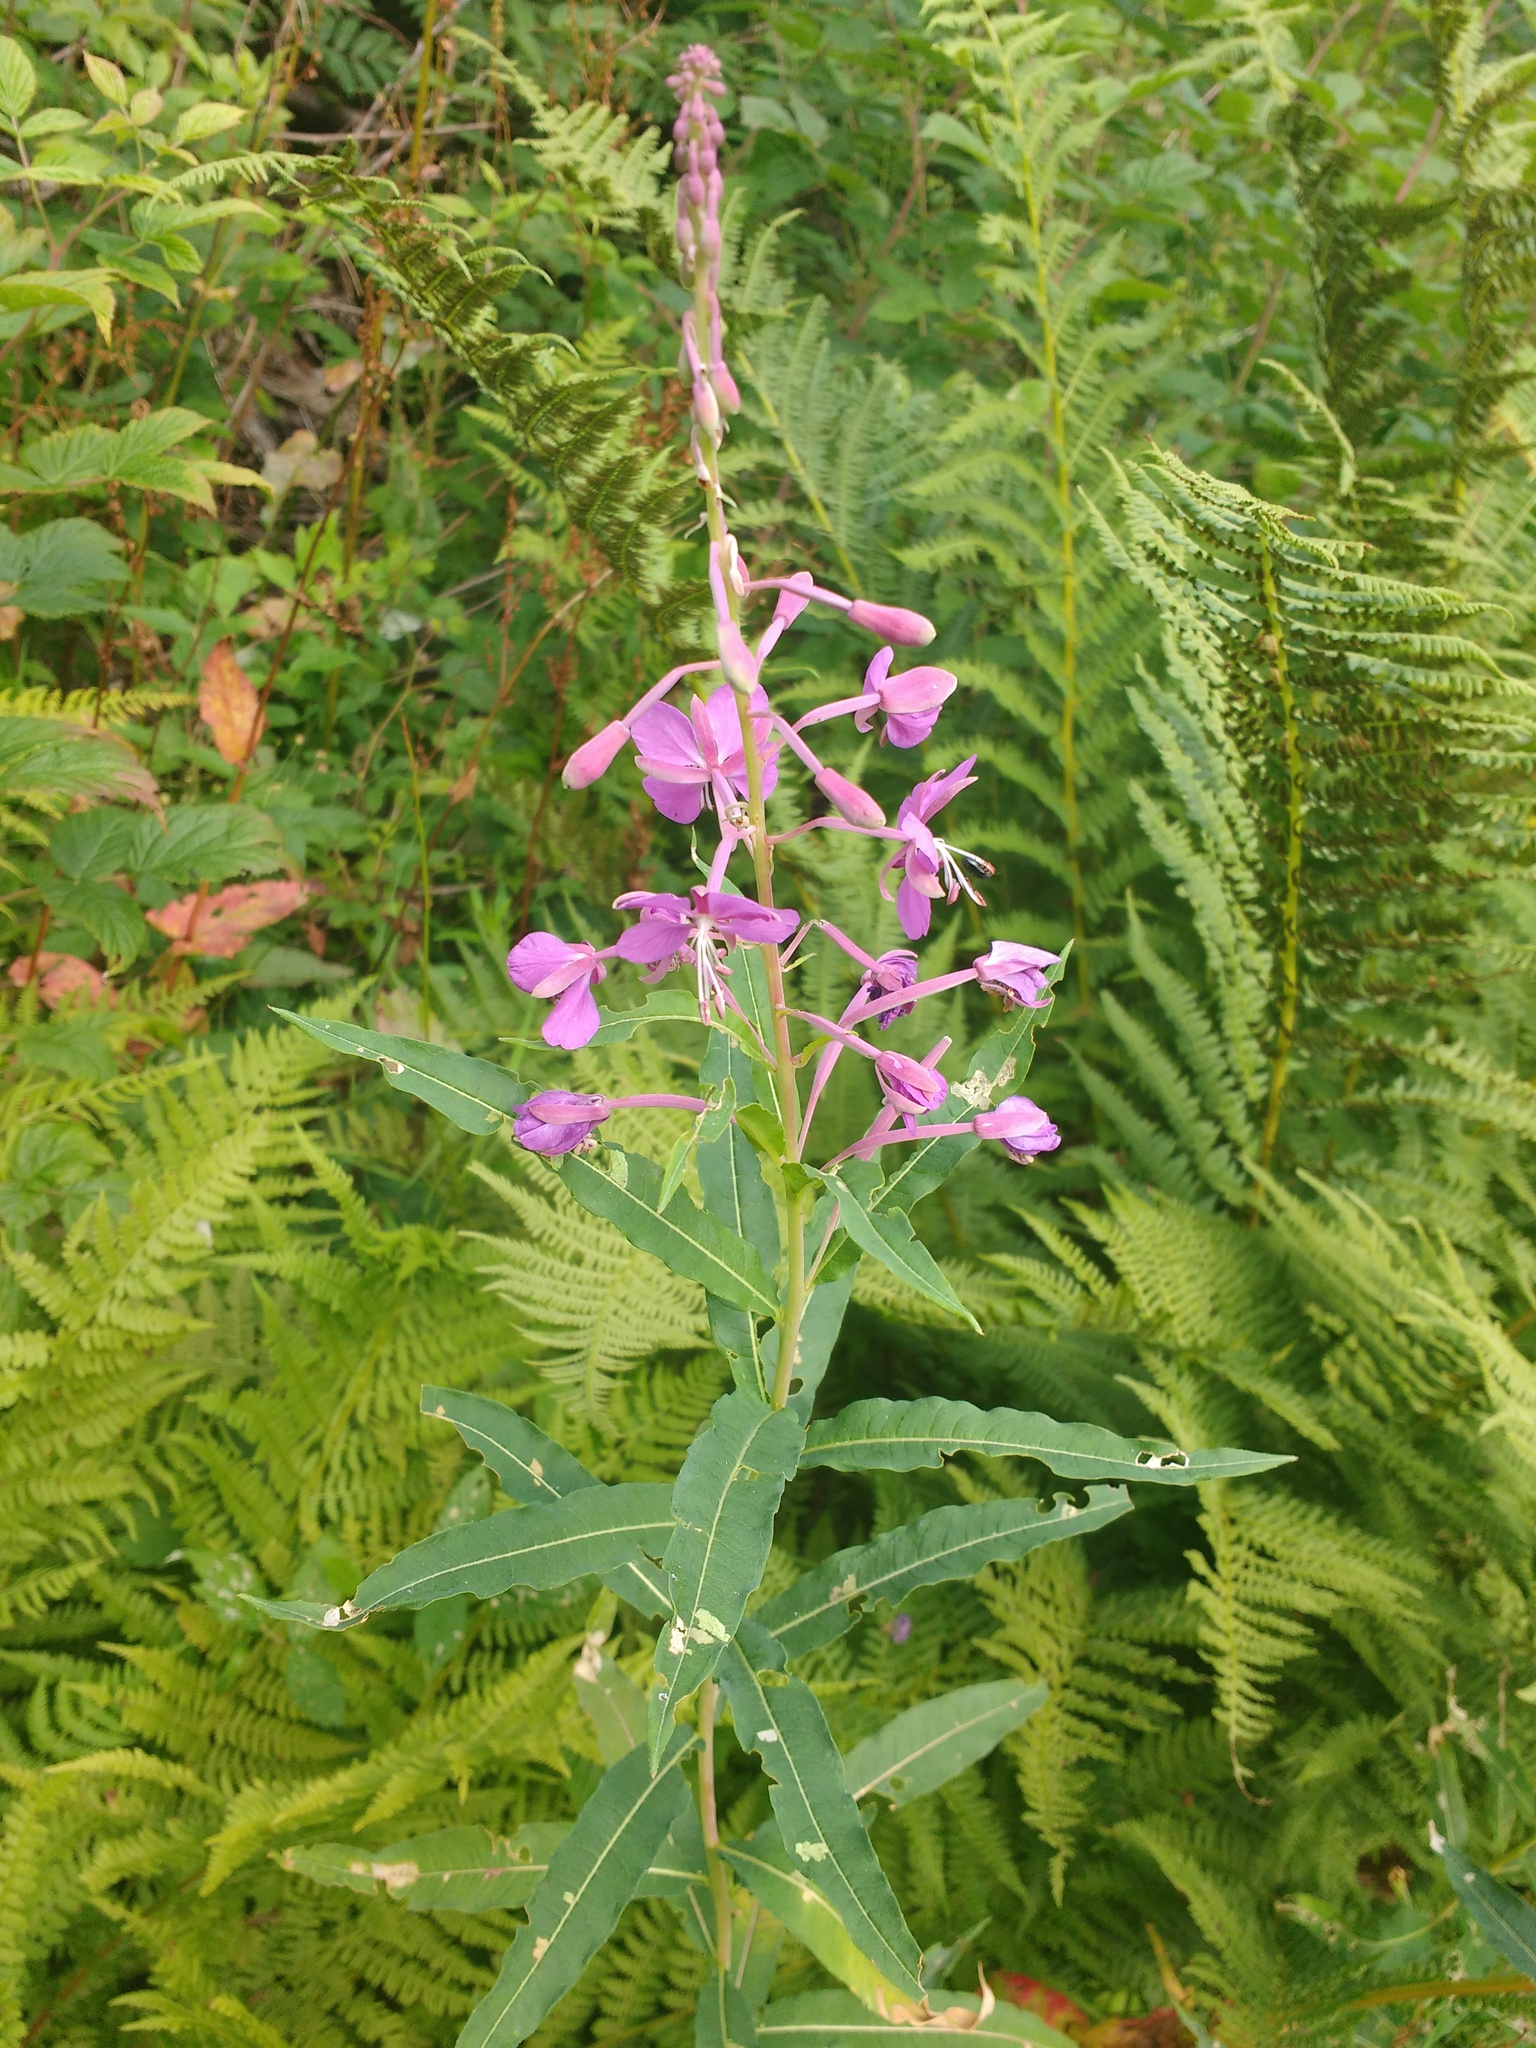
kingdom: Plantae
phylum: Tracheophyta
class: Magnoliopsida
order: Myrtales
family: Onagraceae
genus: Chamaenerion
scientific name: Chamaenerion angustifolium
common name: Fireweed
